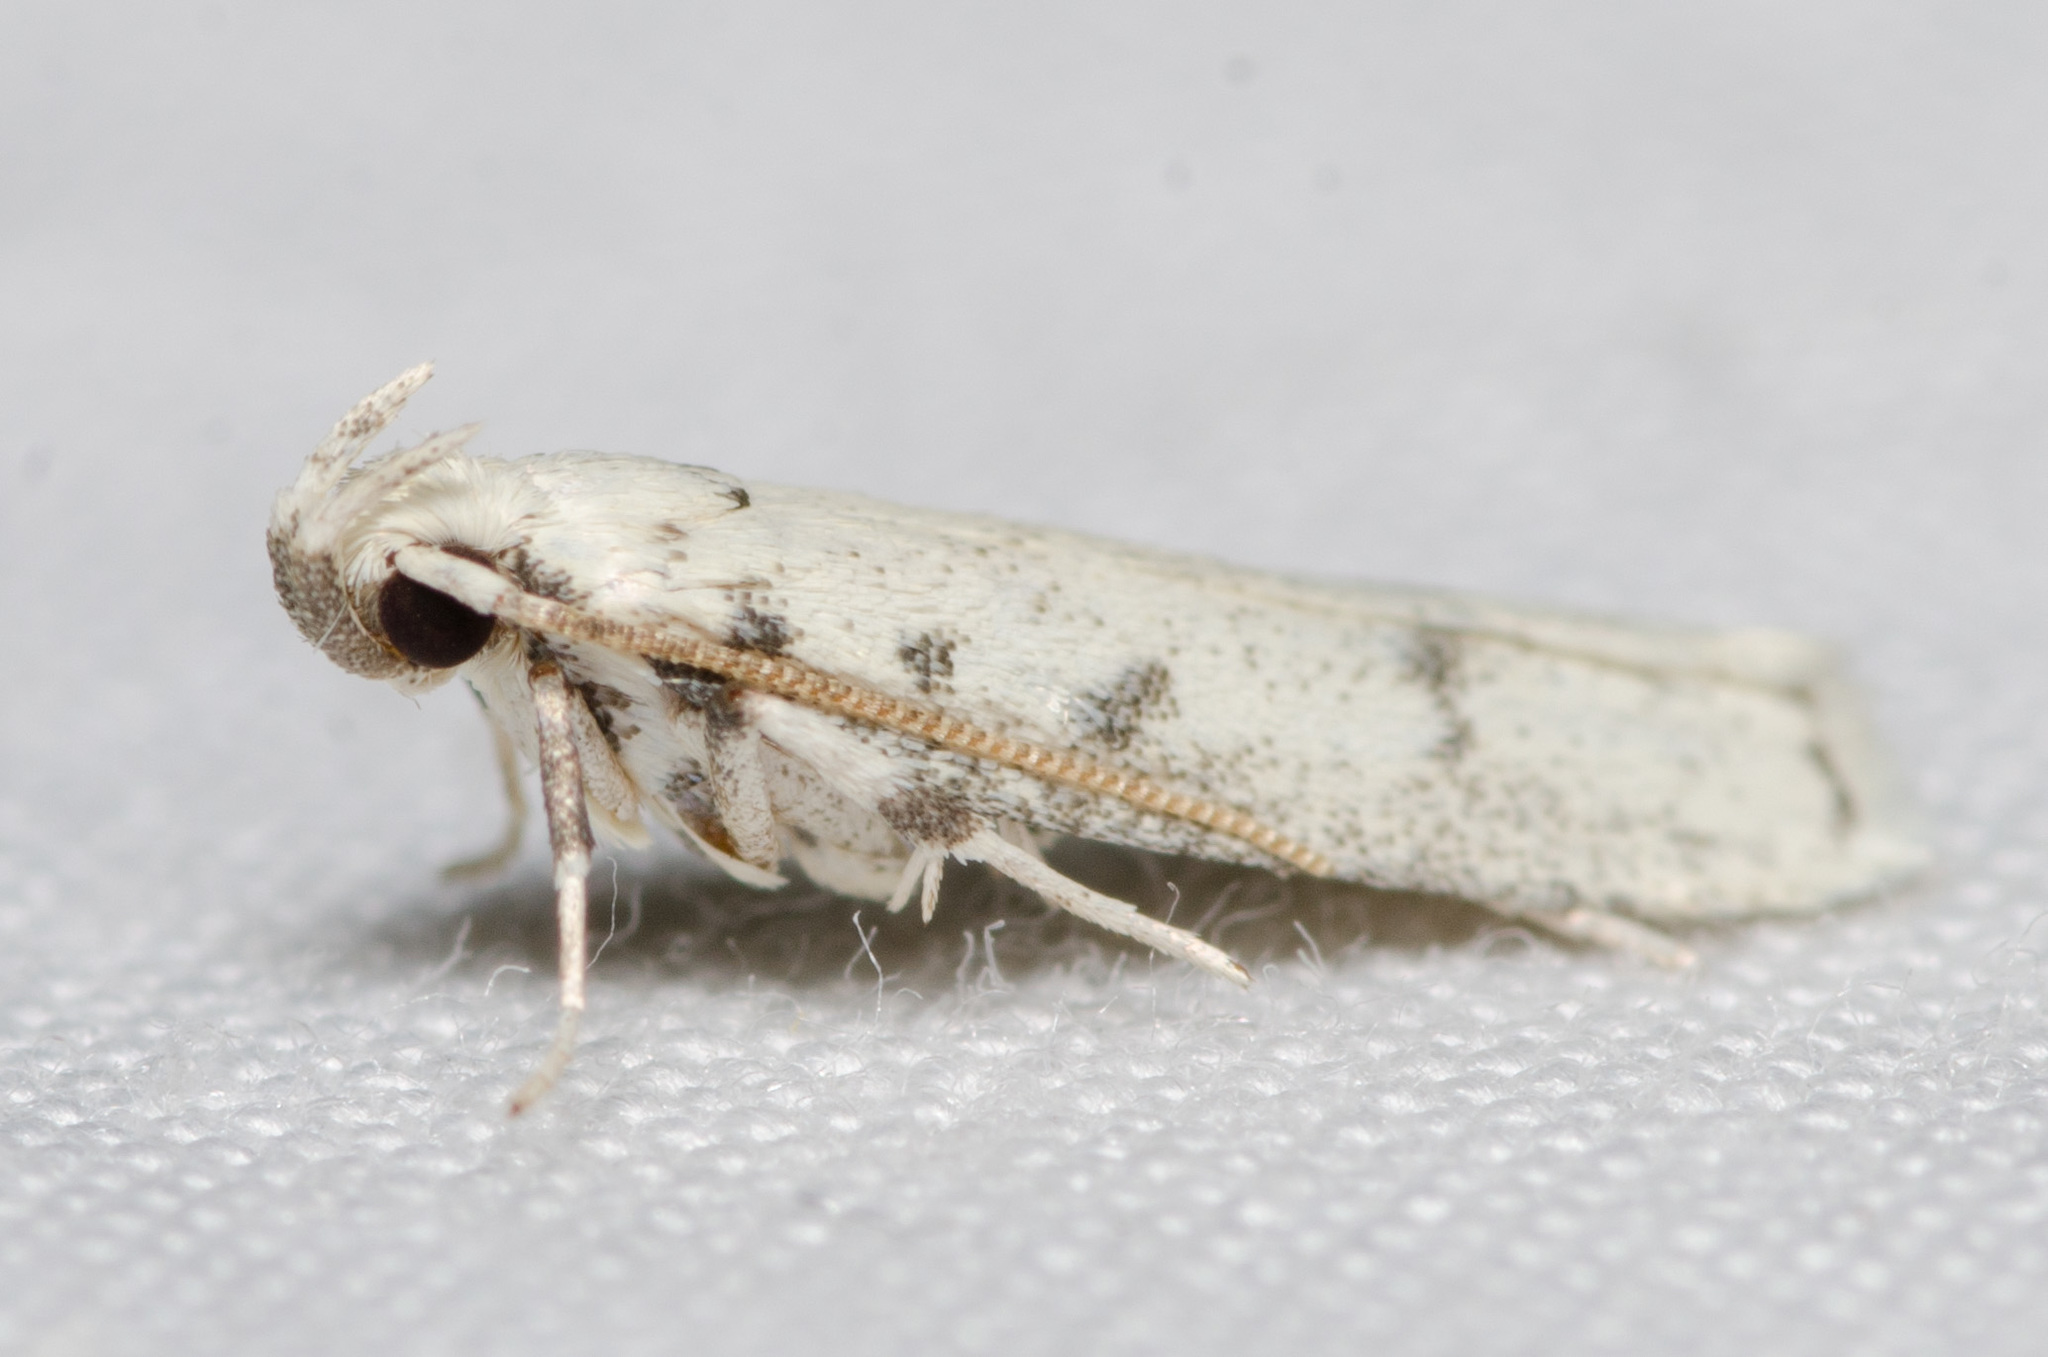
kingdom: Animalia
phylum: Arthropoda
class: Insecta
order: Lepidoptera
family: Autostichidae
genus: Glyphidocera
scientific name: Glyphidocera lactiflosella
